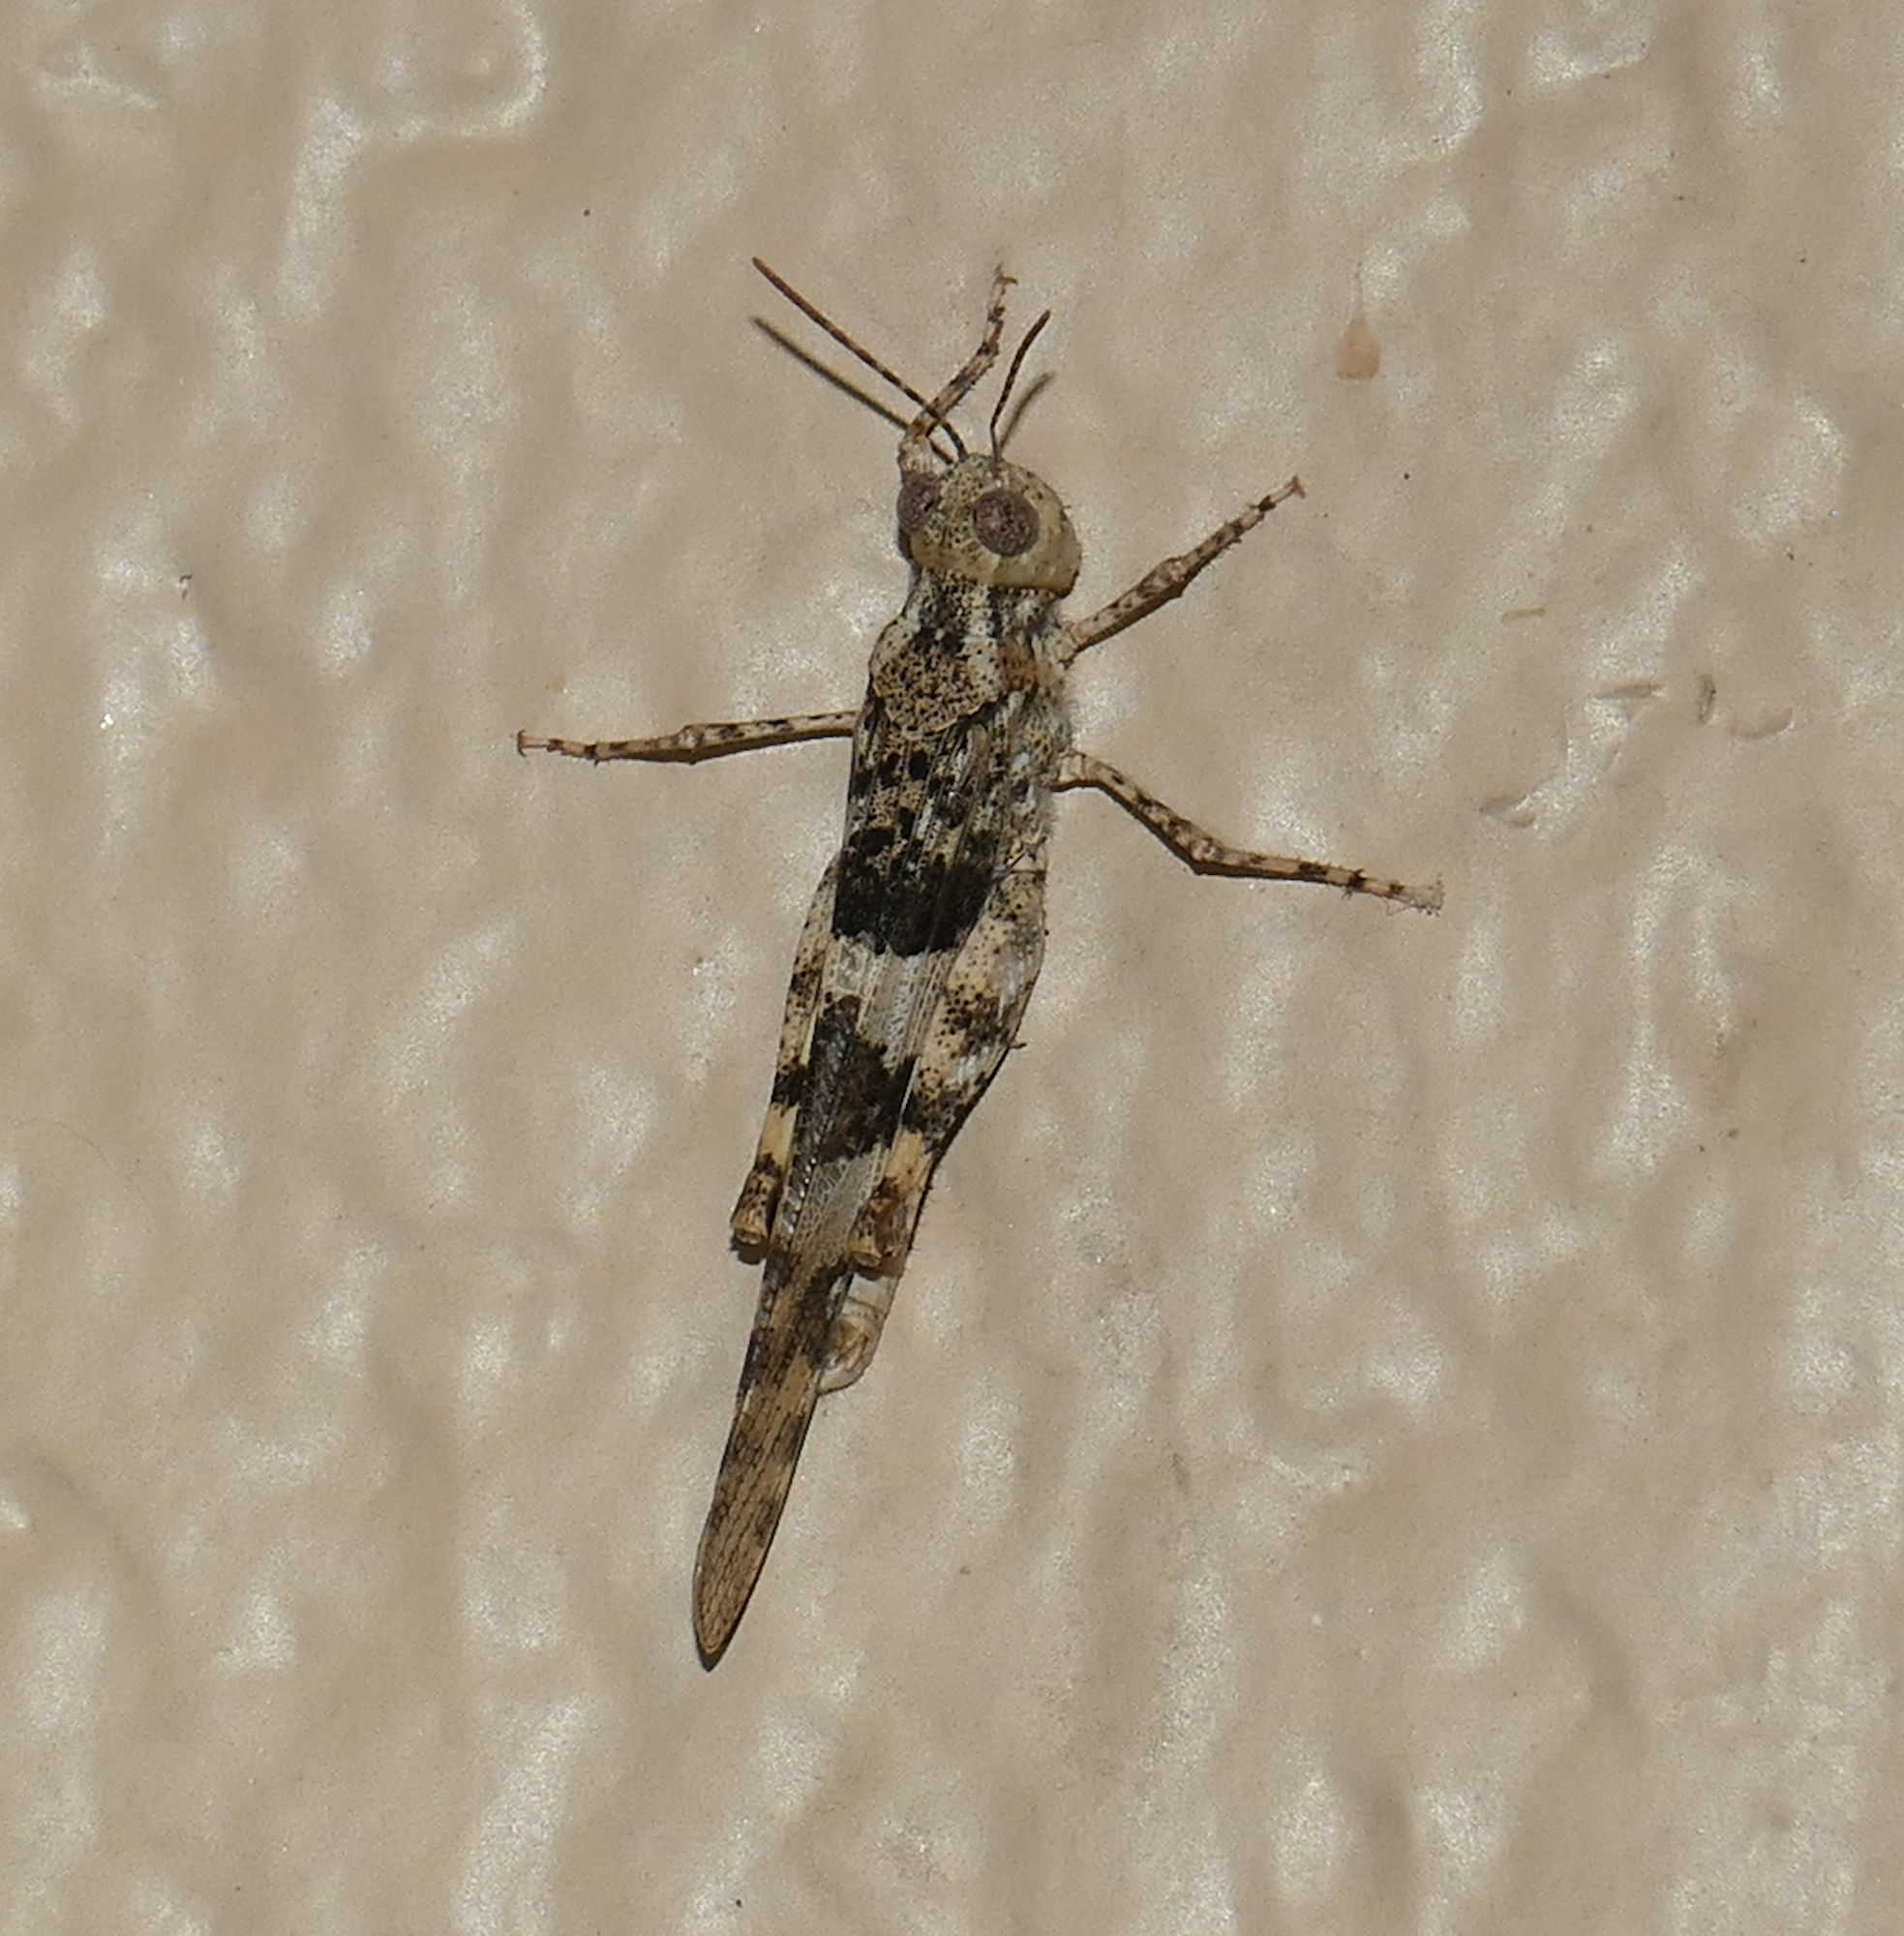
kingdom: Animalia
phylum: Arthropoda
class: Insecta
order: Orthoptera
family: Acrididae
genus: Trimerotropis
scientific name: Trimerotropis pallidipennis
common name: Pallid-winged grasshopper
